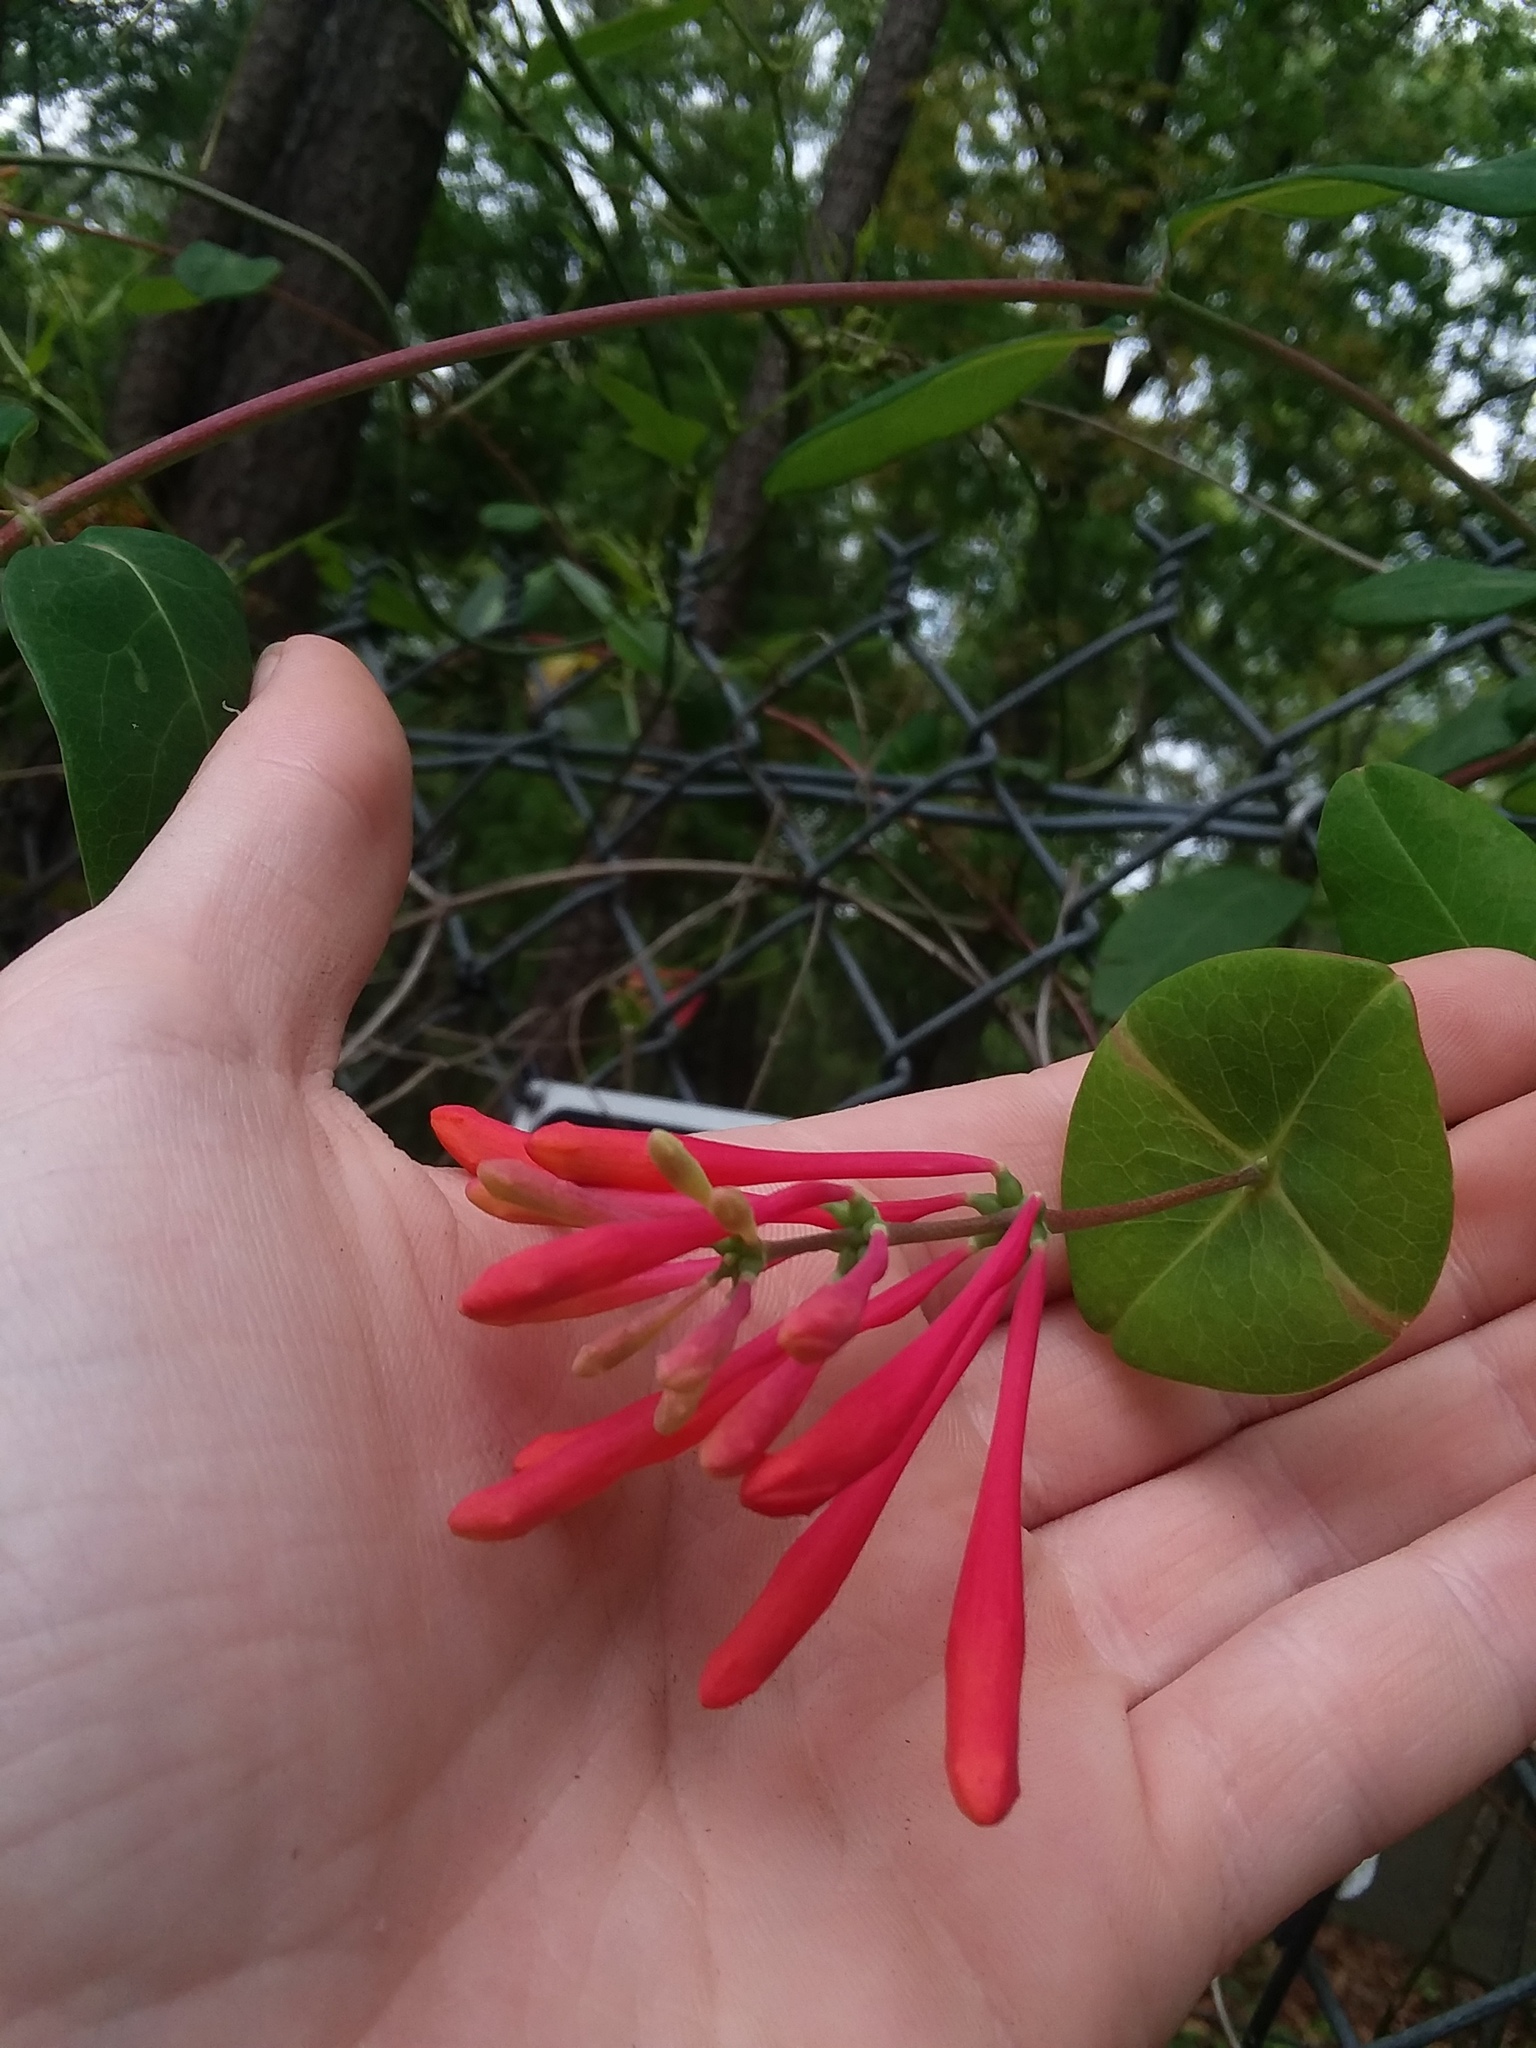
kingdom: Plantae
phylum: Tracheophyta
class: Magnoliopsida
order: Dipsacales
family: Caprifoliaceae
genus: Lonicera
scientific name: Lonicera sempervirens
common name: Coral honeysuckle
